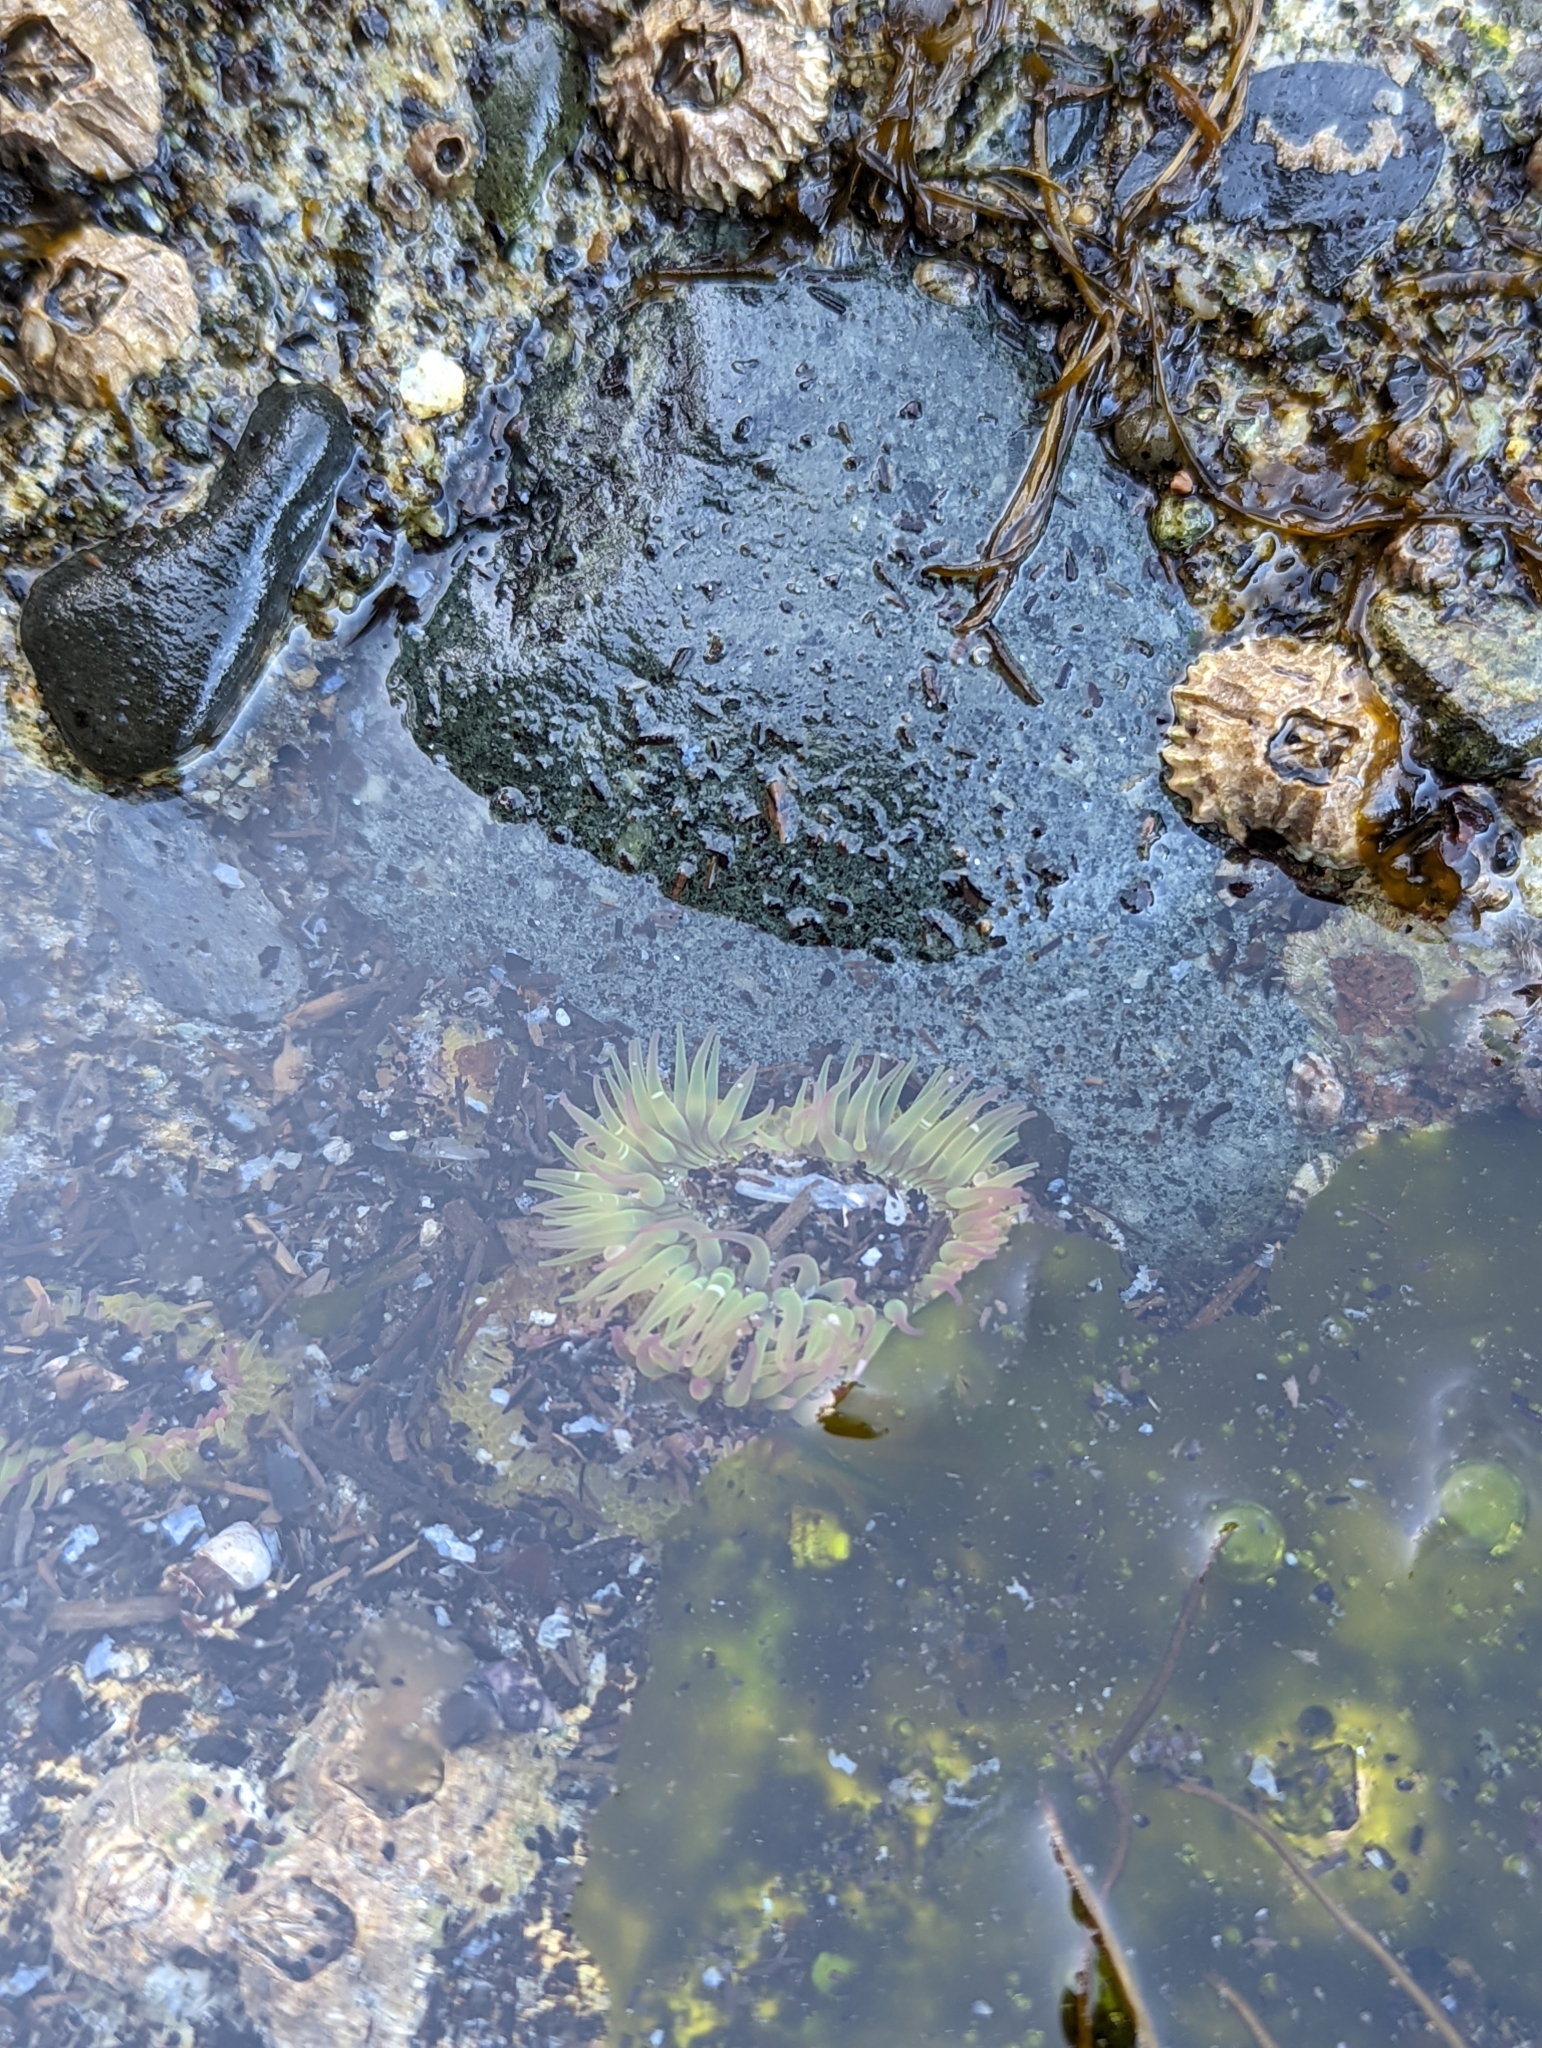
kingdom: Animalia
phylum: Cnidaria
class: Anthozoa
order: Actiniaria
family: Actiniidae
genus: Anthopleura
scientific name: Anthopleura elegantissima
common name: Clonal anemone
